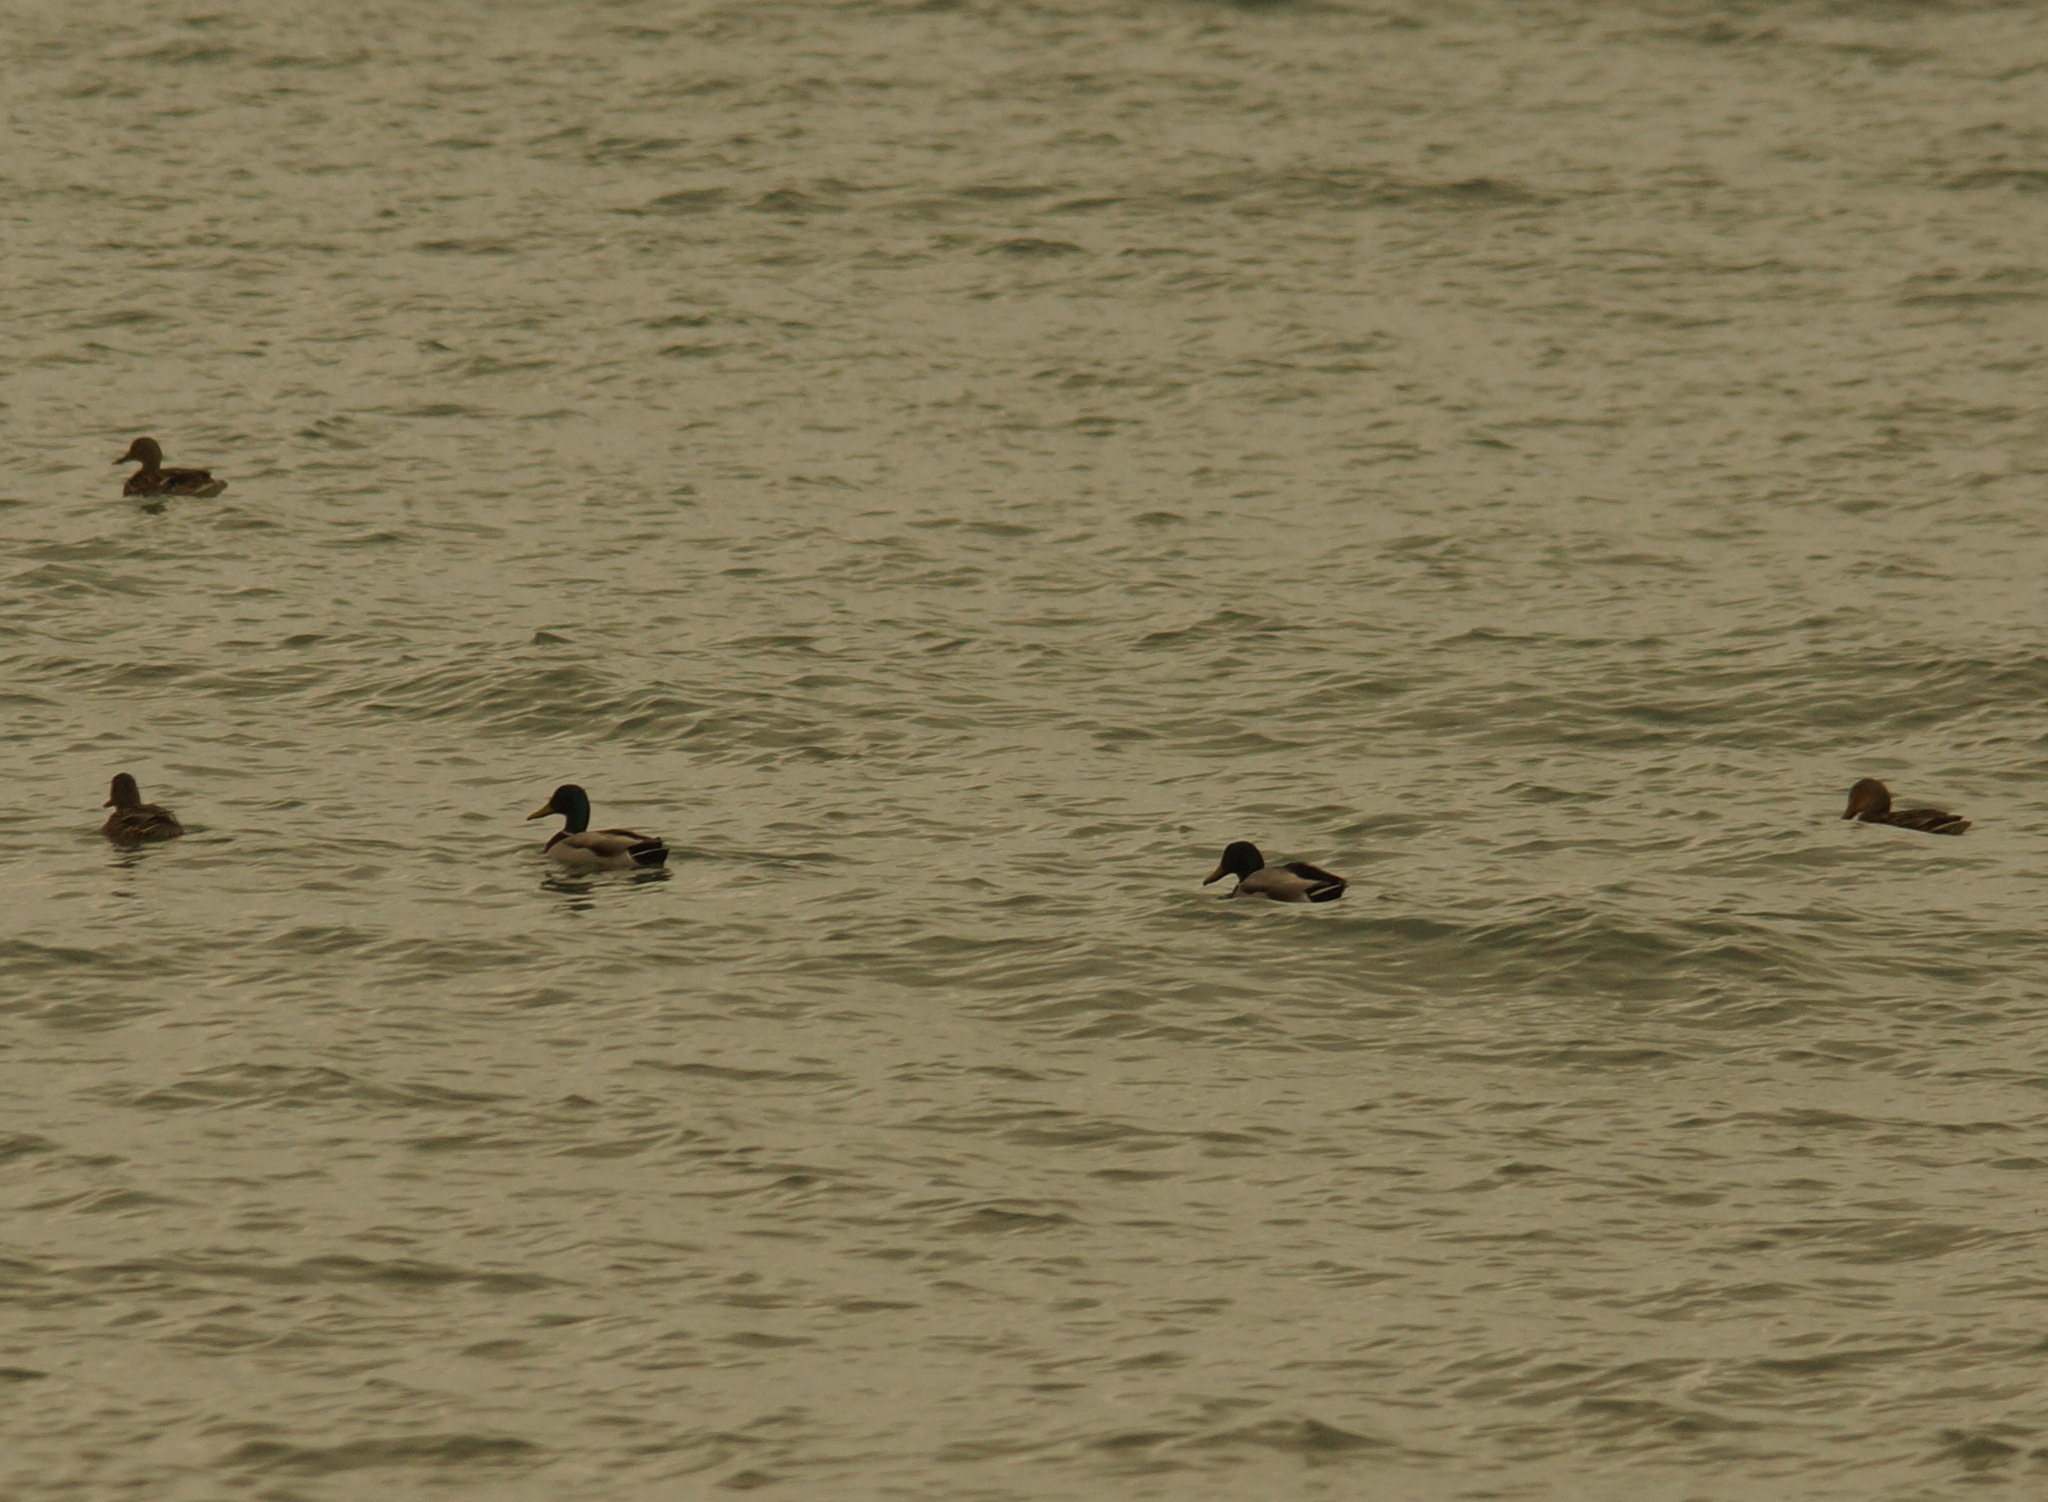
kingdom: Animalia
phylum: Chordata
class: Aves
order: Anseriformes
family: Anatidae
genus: Anas
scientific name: Anas platyrhynchos
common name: Mallard
